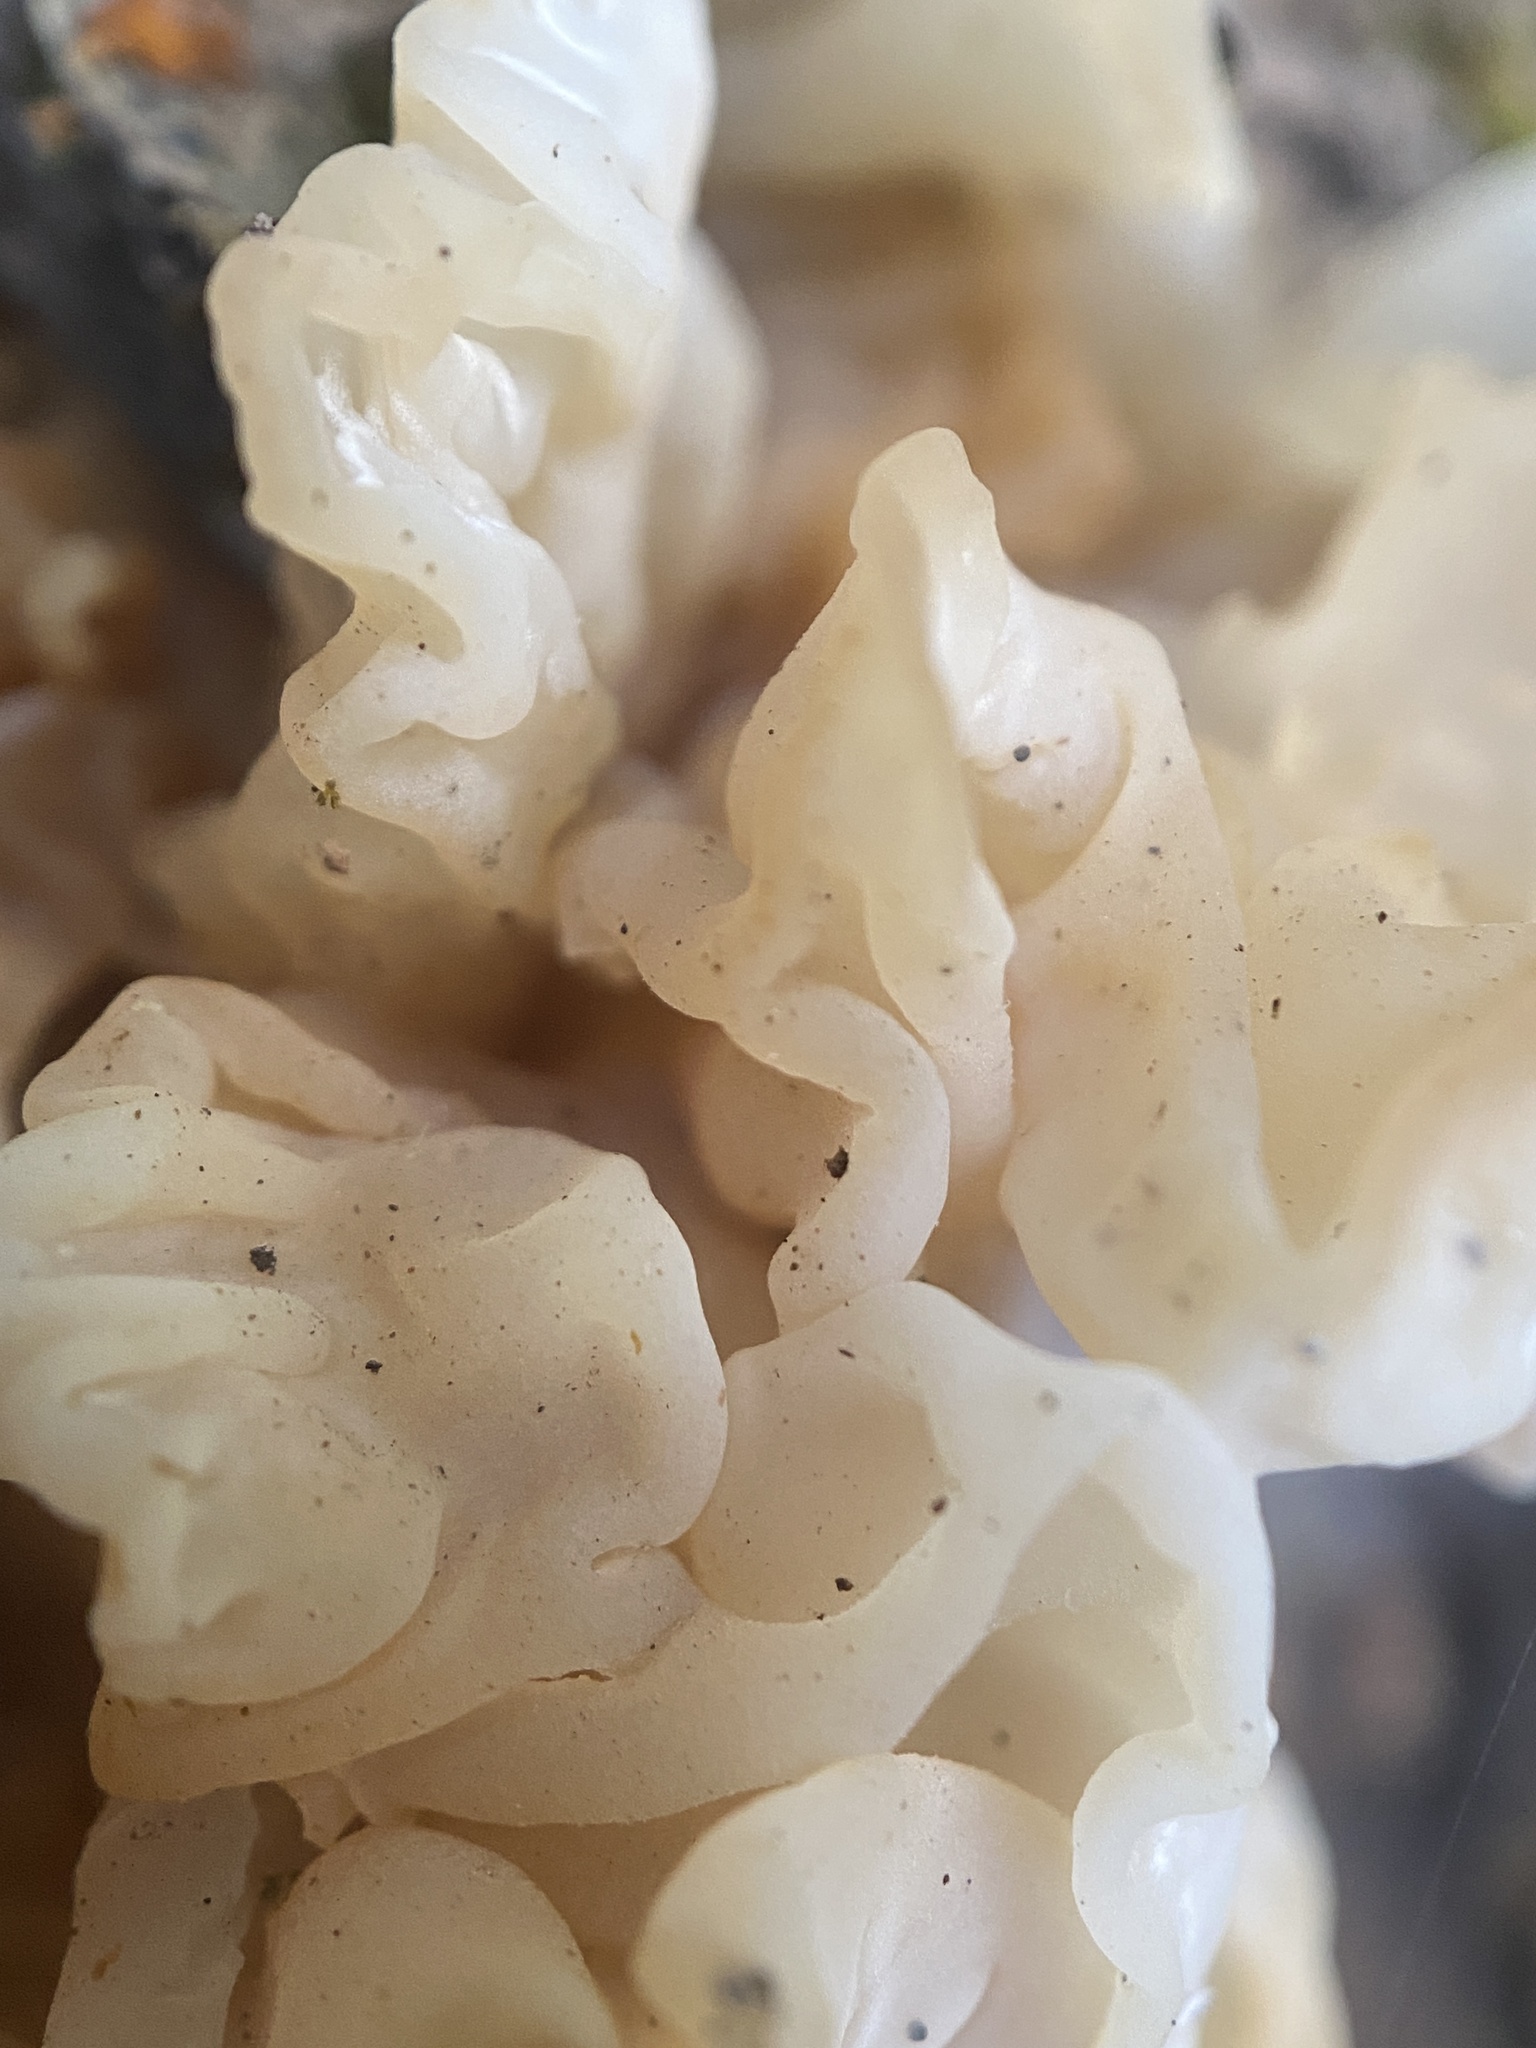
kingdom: Fungi
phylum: Basidiomycota
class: Agaricomycetes
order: Auriculariales
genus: Ductifera
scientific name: Ductifera pululahuana
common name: White jelly fungus
